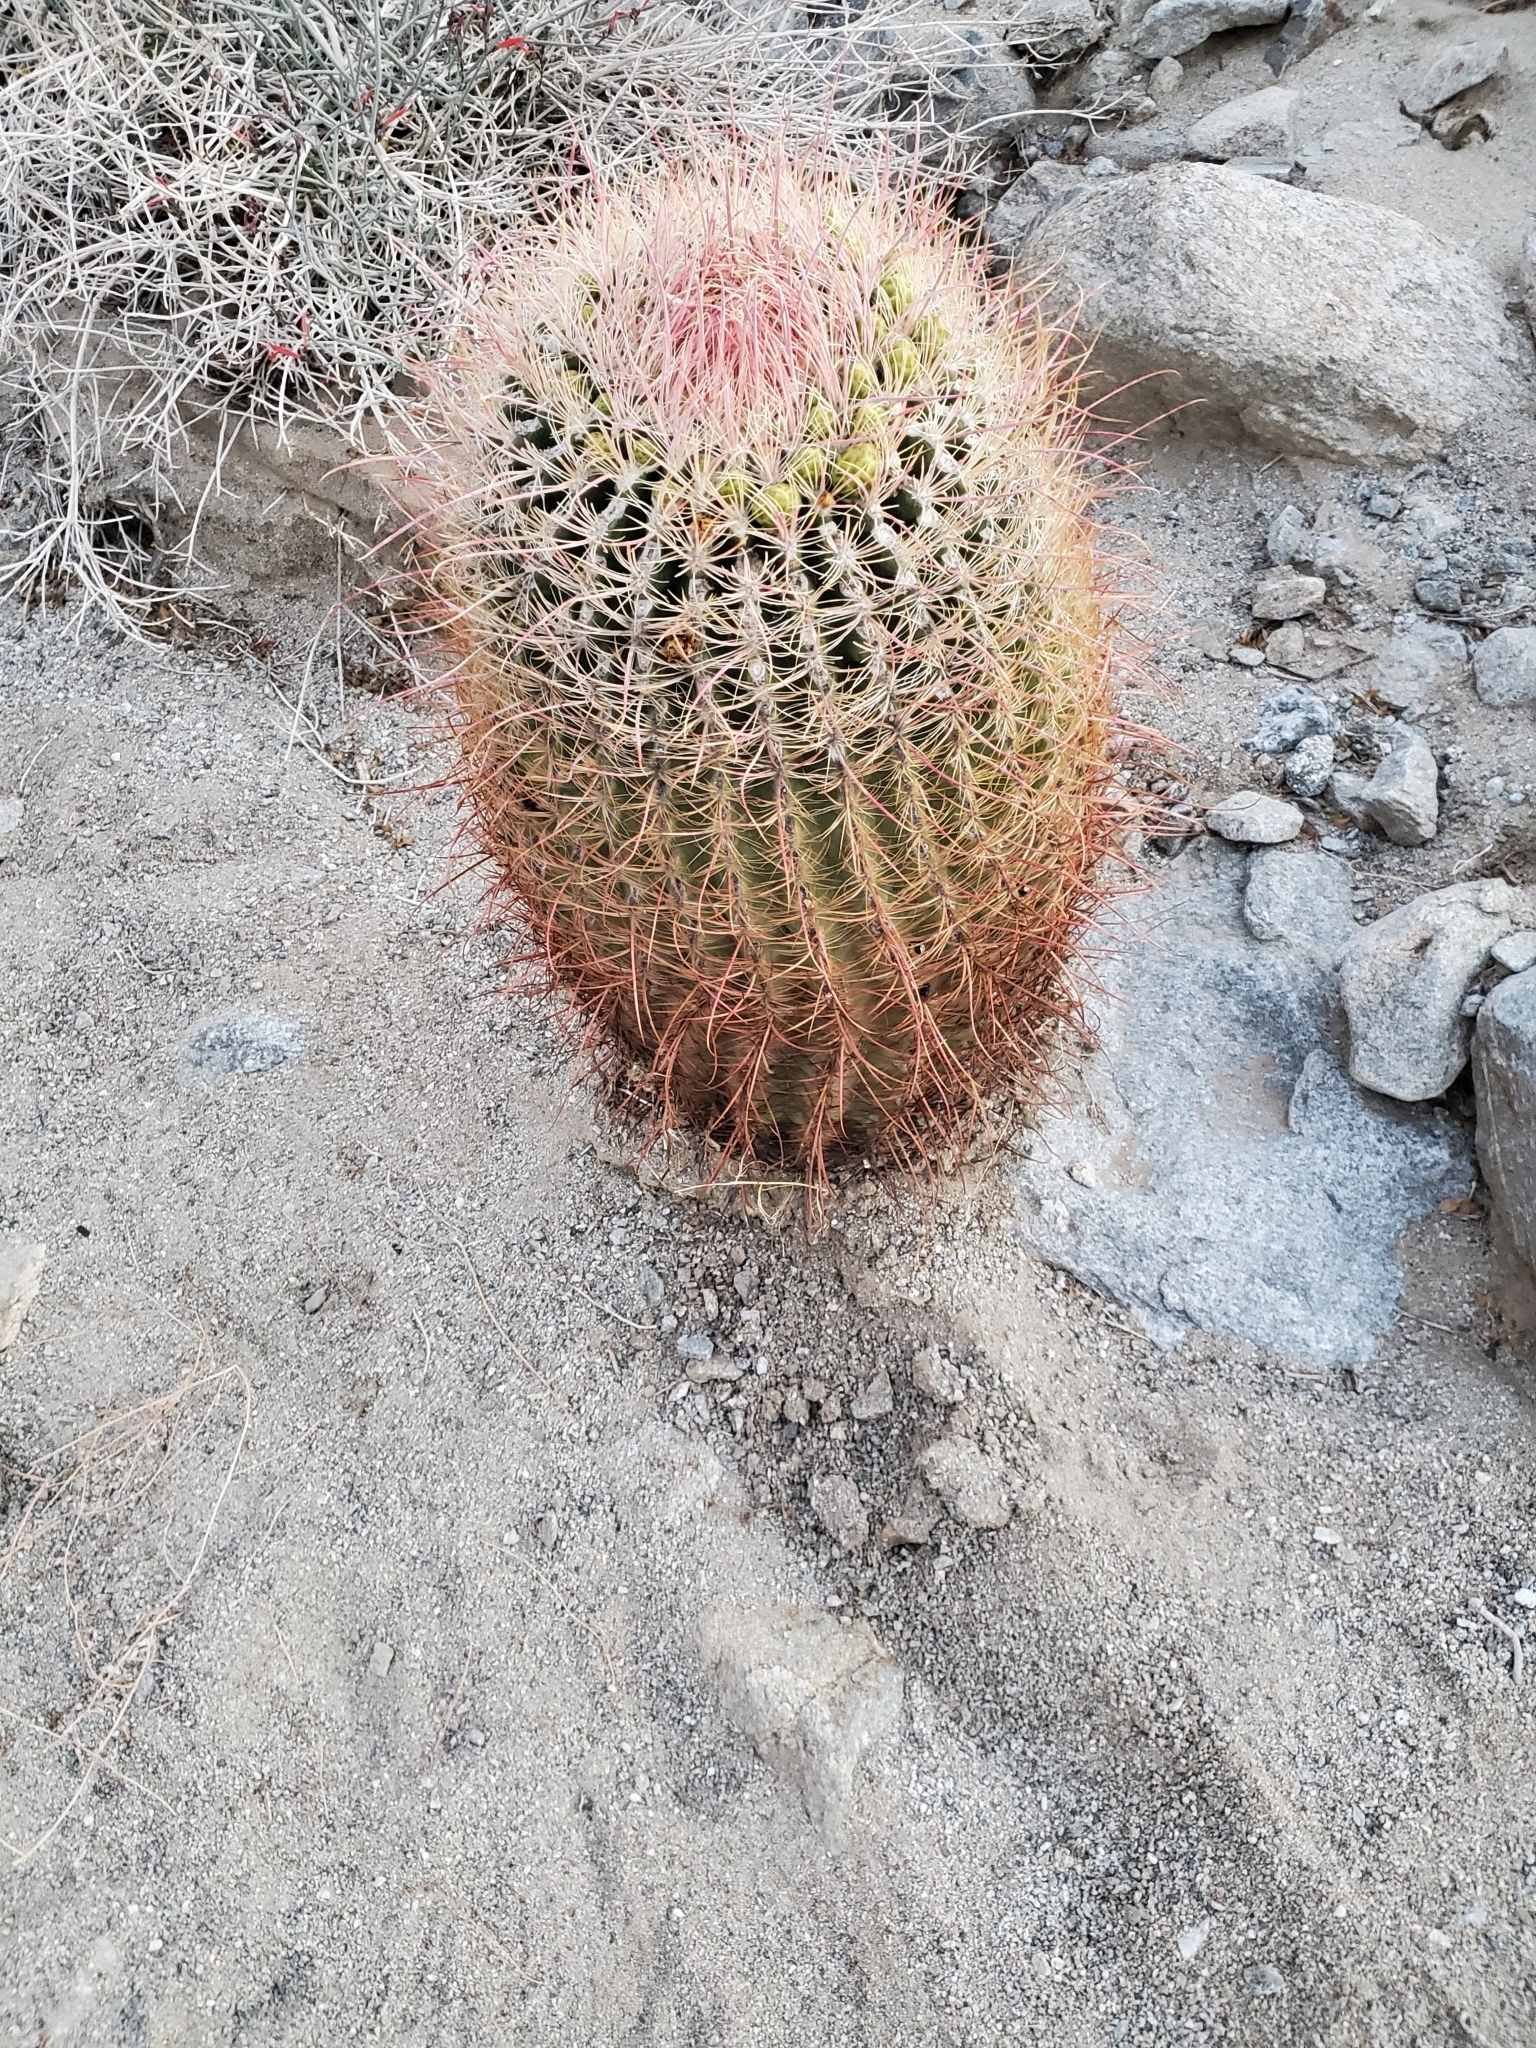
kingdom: Plantae
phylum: Tracheophyta
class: Magnoliopsida
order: Caryophyllales
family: Cactaceae
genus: Ferocactus
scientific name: Ferocactus cylindraceus
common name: California barrel cactus
